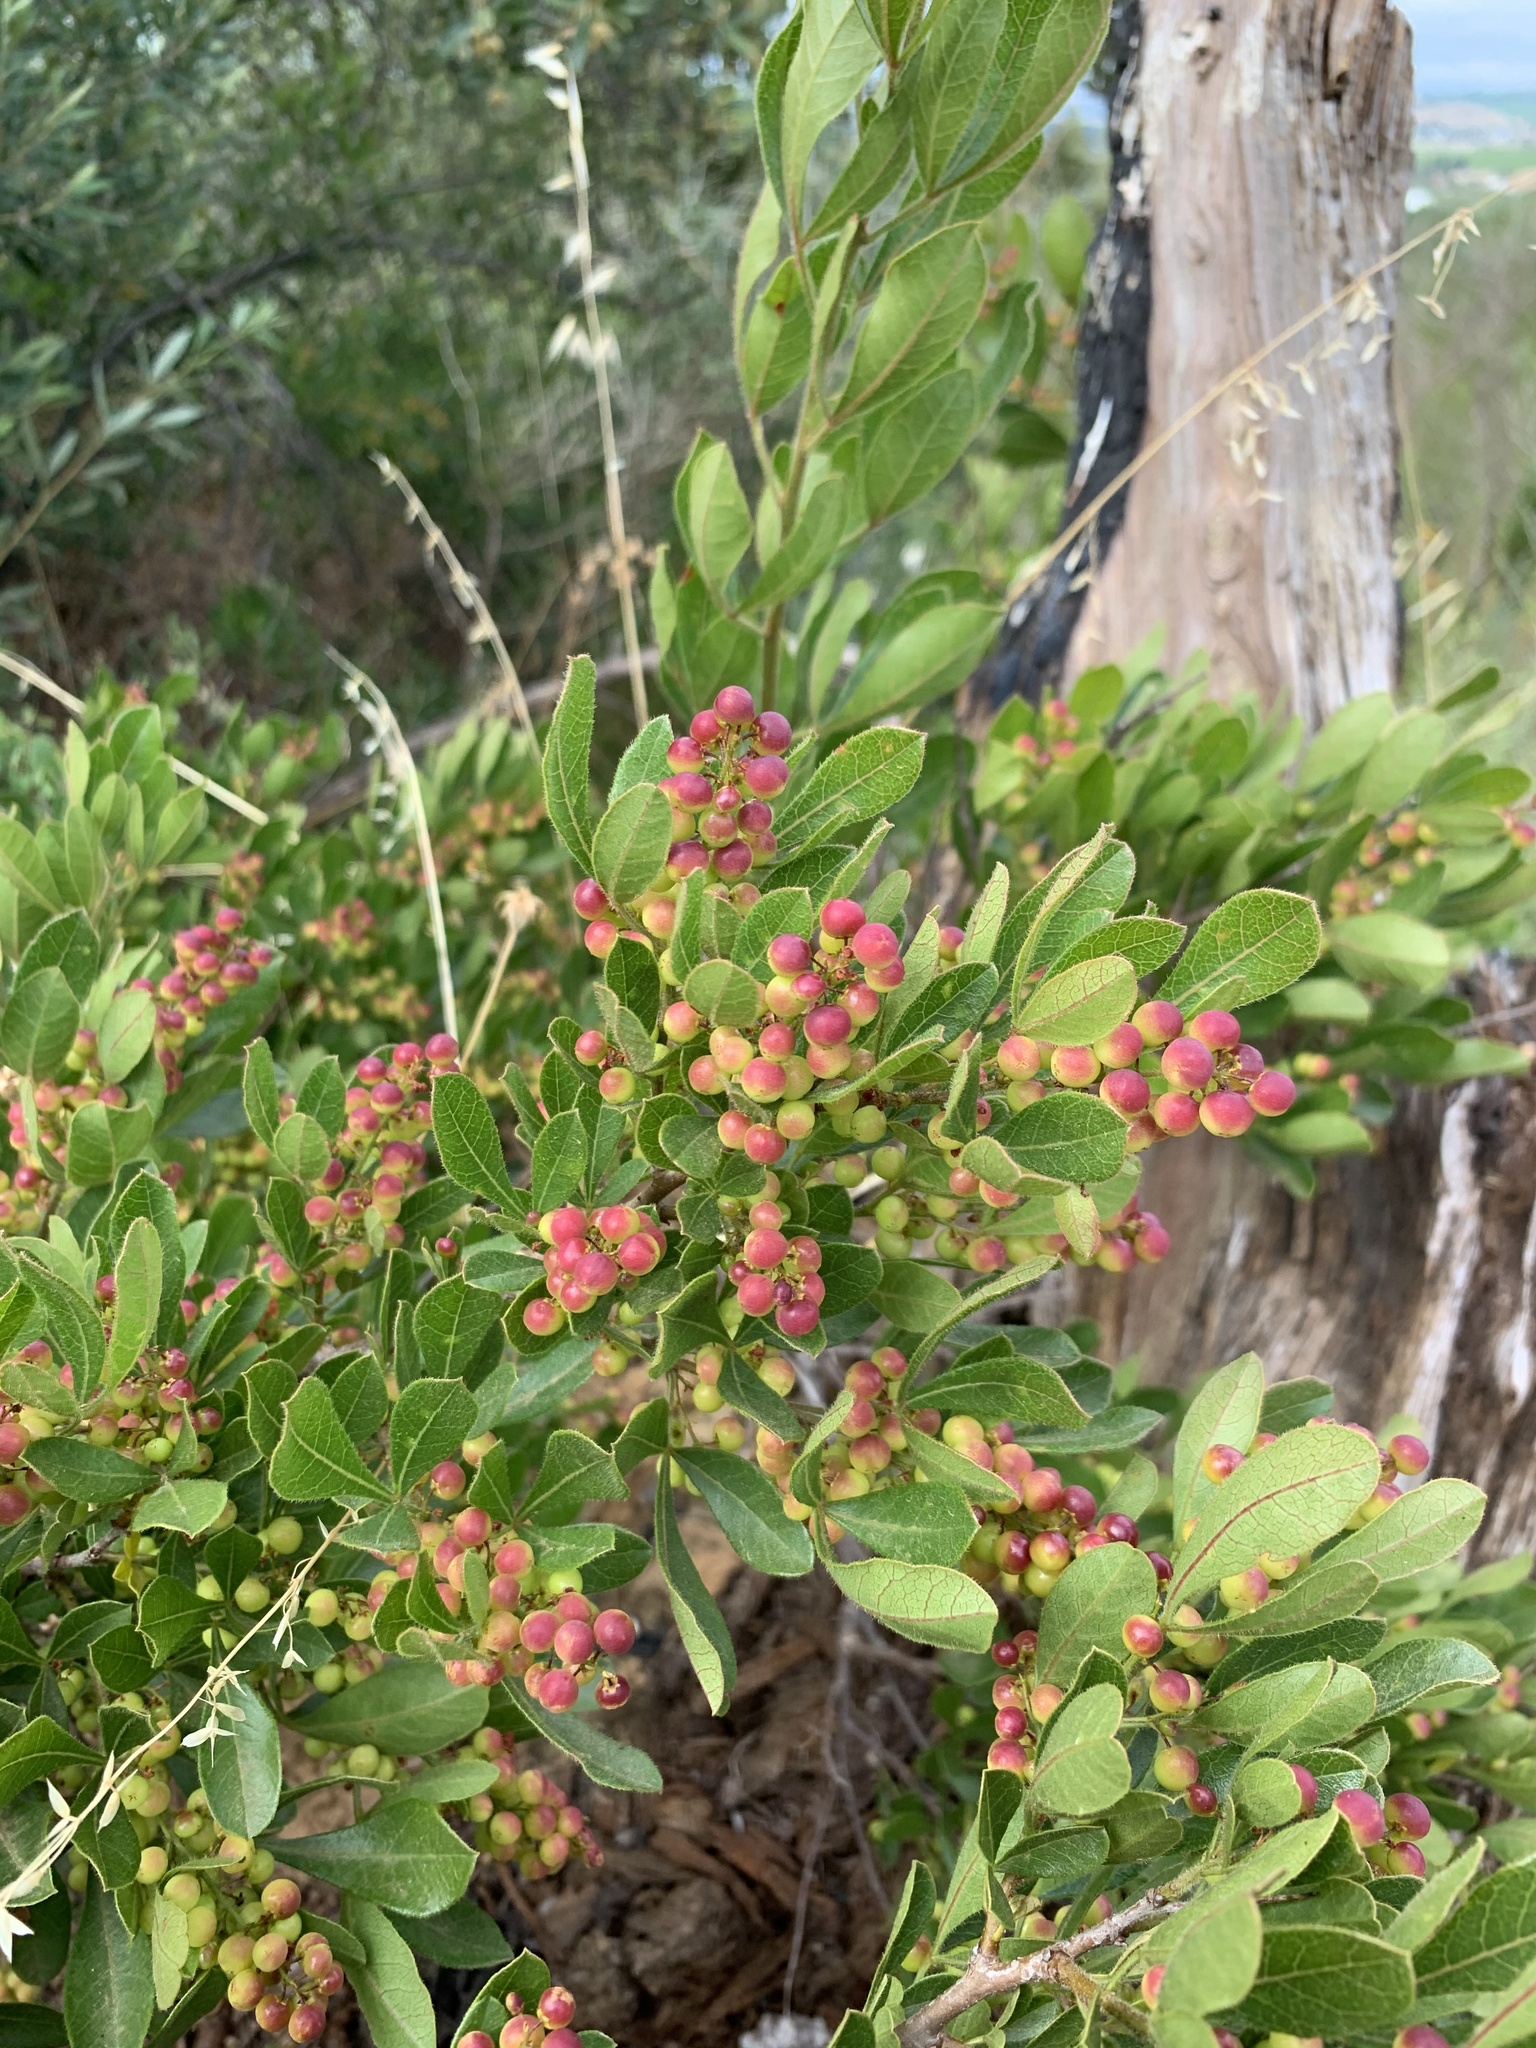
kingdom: Plantae
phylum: Tracheophyta
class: Magnoliopsida
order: Sapindales
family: Anacardiaceae
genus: Searsia
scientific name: Searsia laevigata
